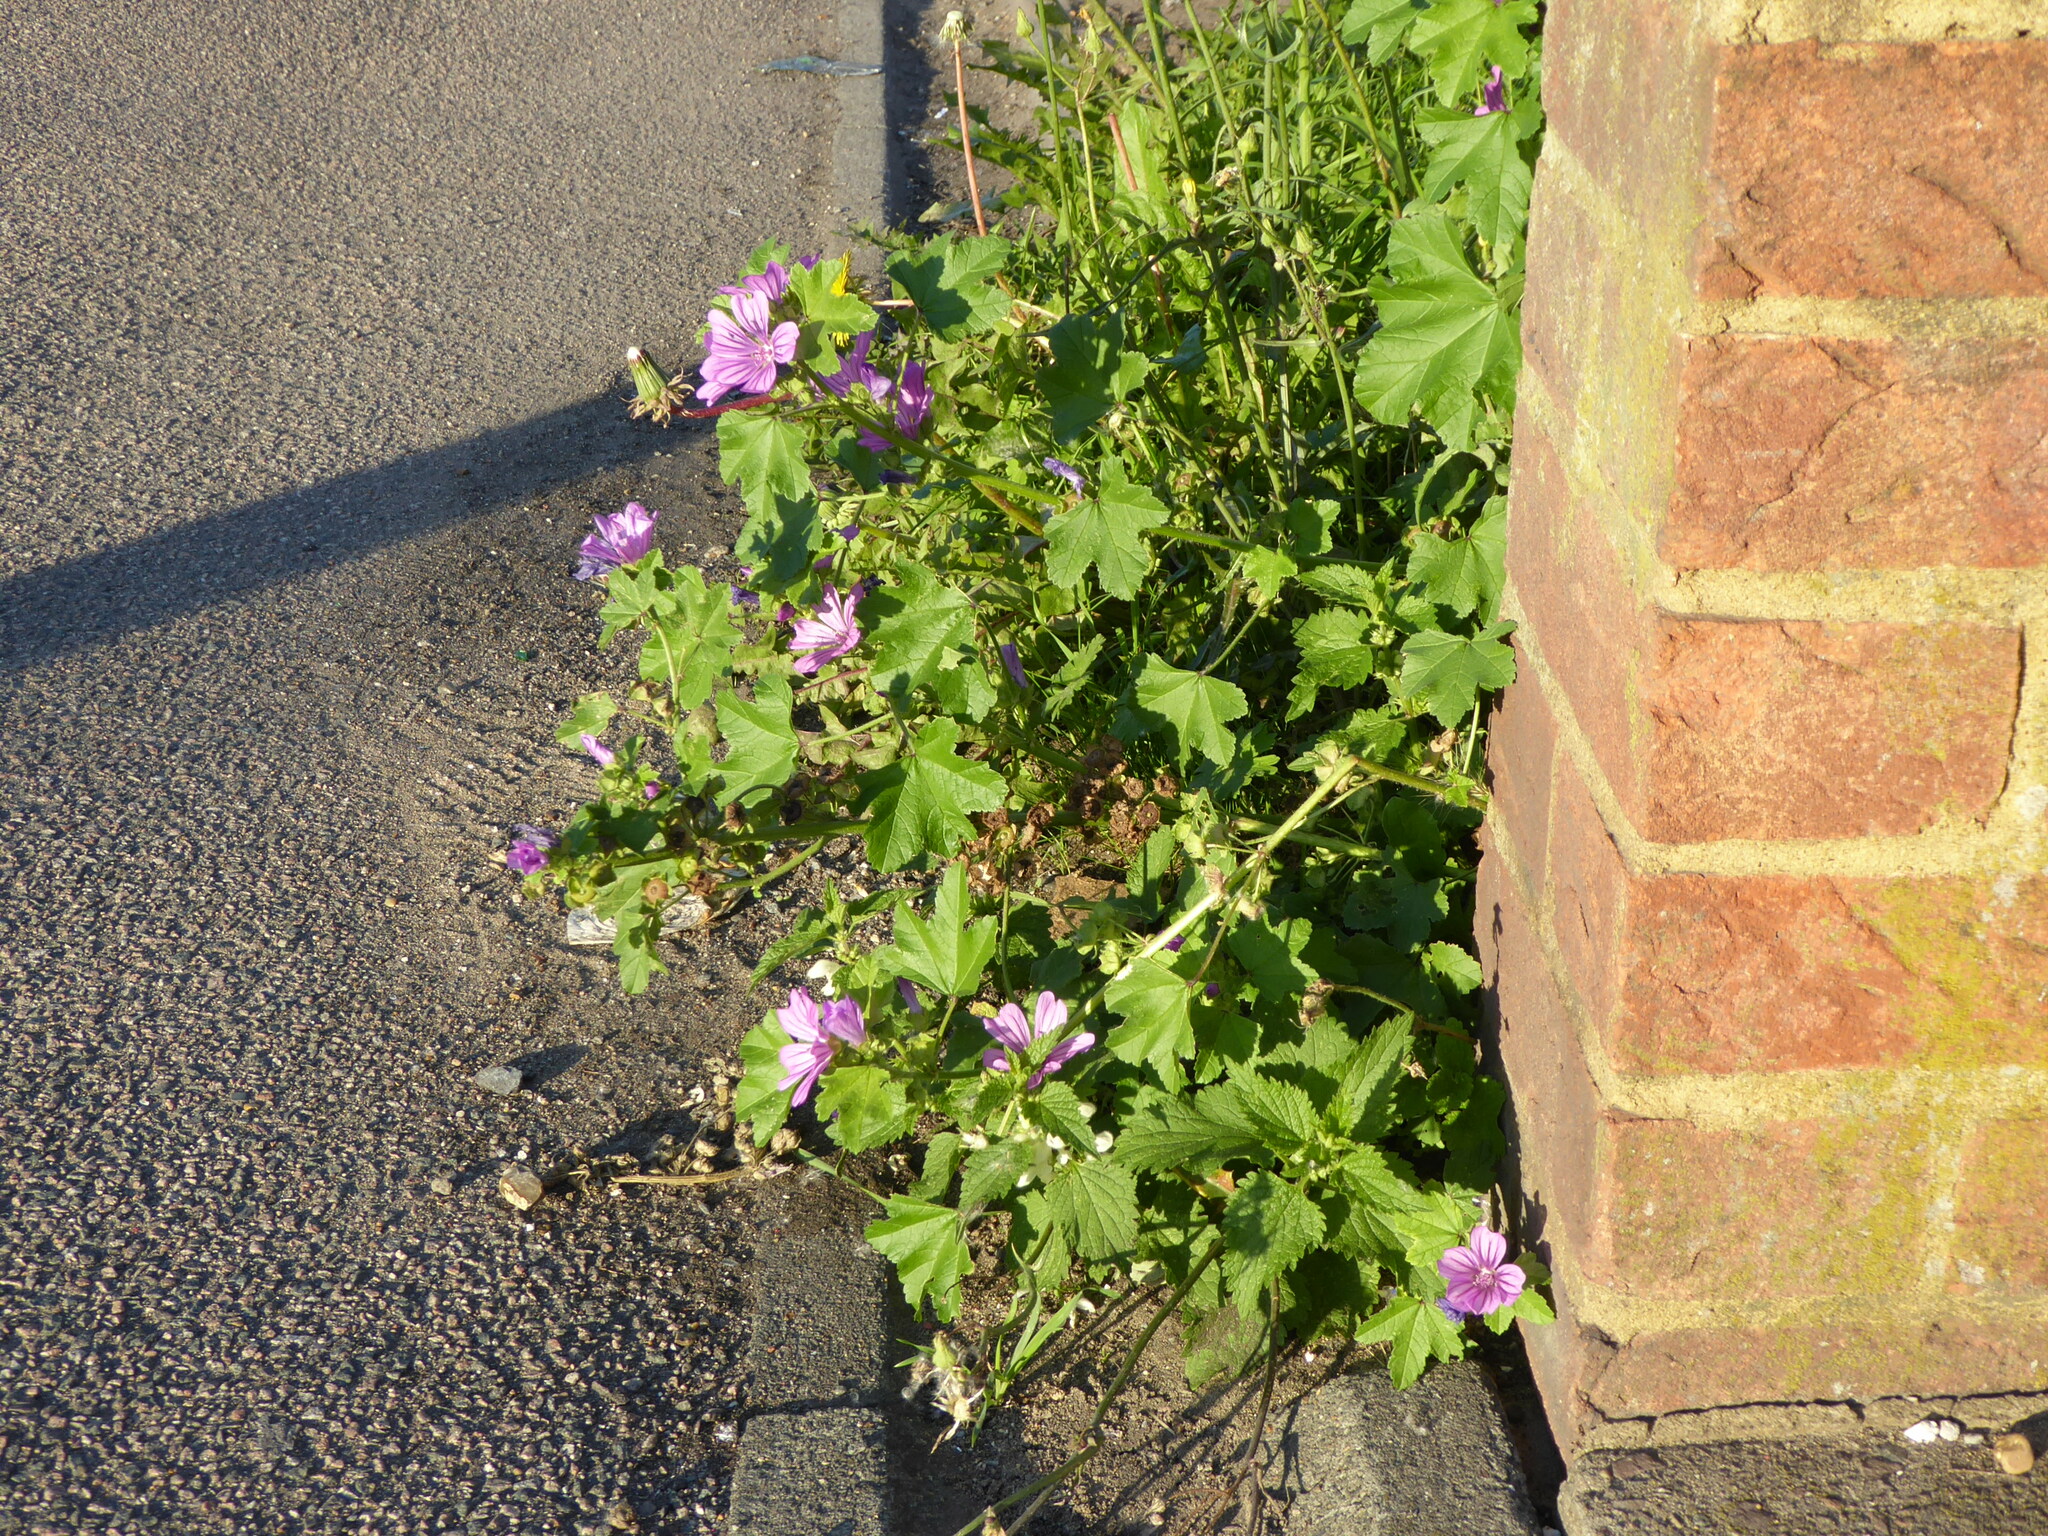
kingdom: Plantae
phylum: Tracheophyta
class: Magnoliopsida
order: Malvales
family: Malvaceae
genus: Malva
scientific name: Malva sylvestris
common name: Common mallow
